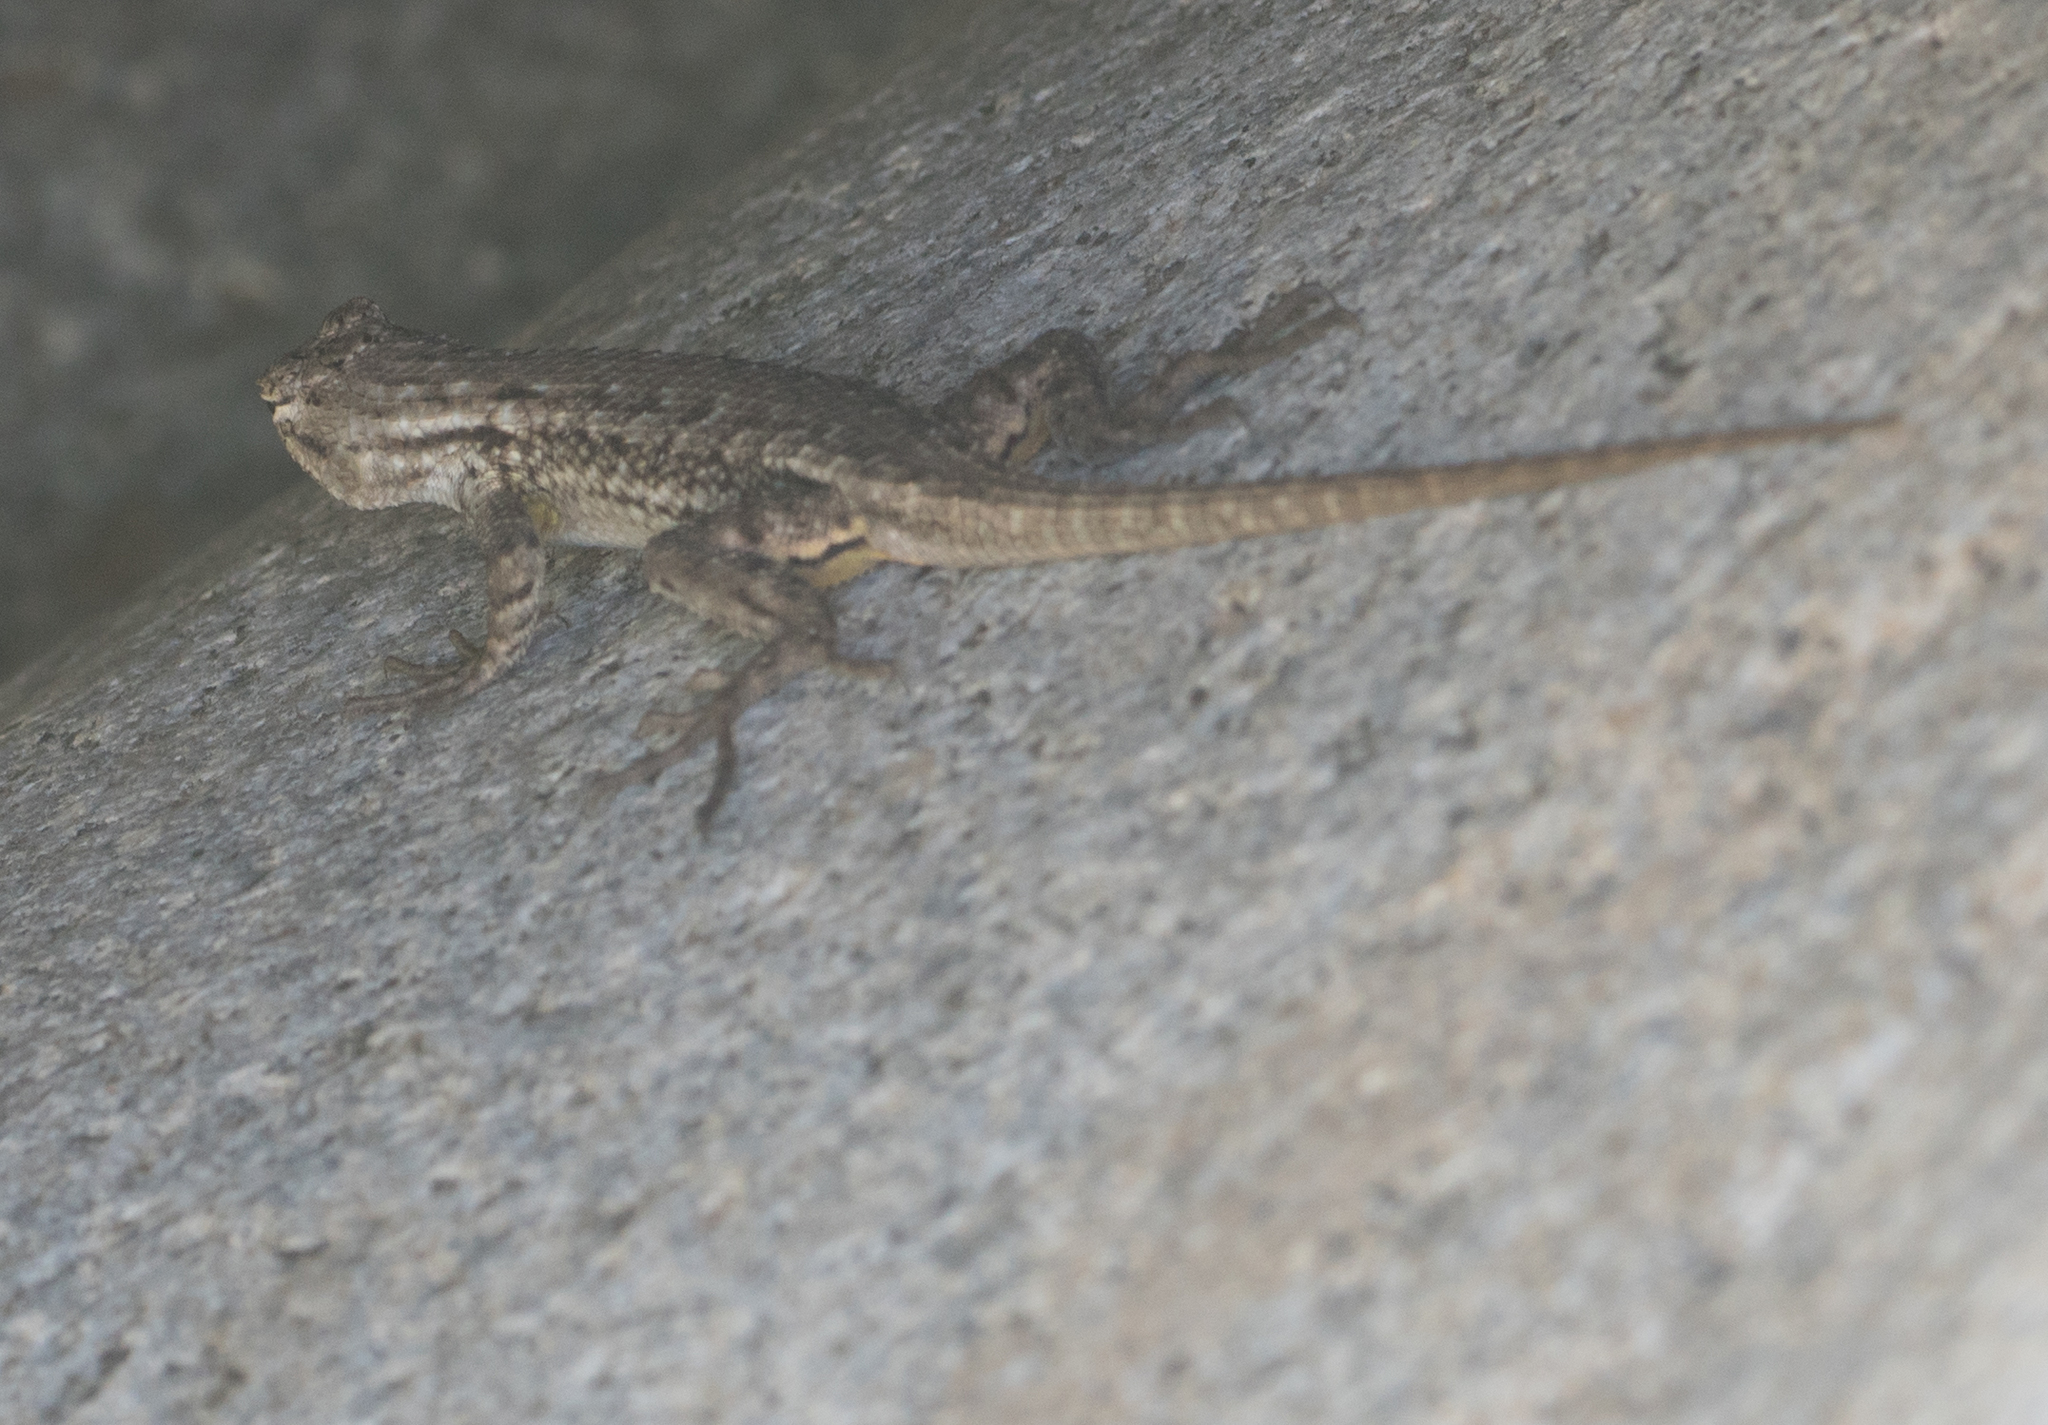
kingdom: Animalia
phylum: Chordata
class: Squamata
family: Phrynosomatidae
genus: Sceloporus
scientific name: Sceloporus occidentalis
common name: Western fence lizard
